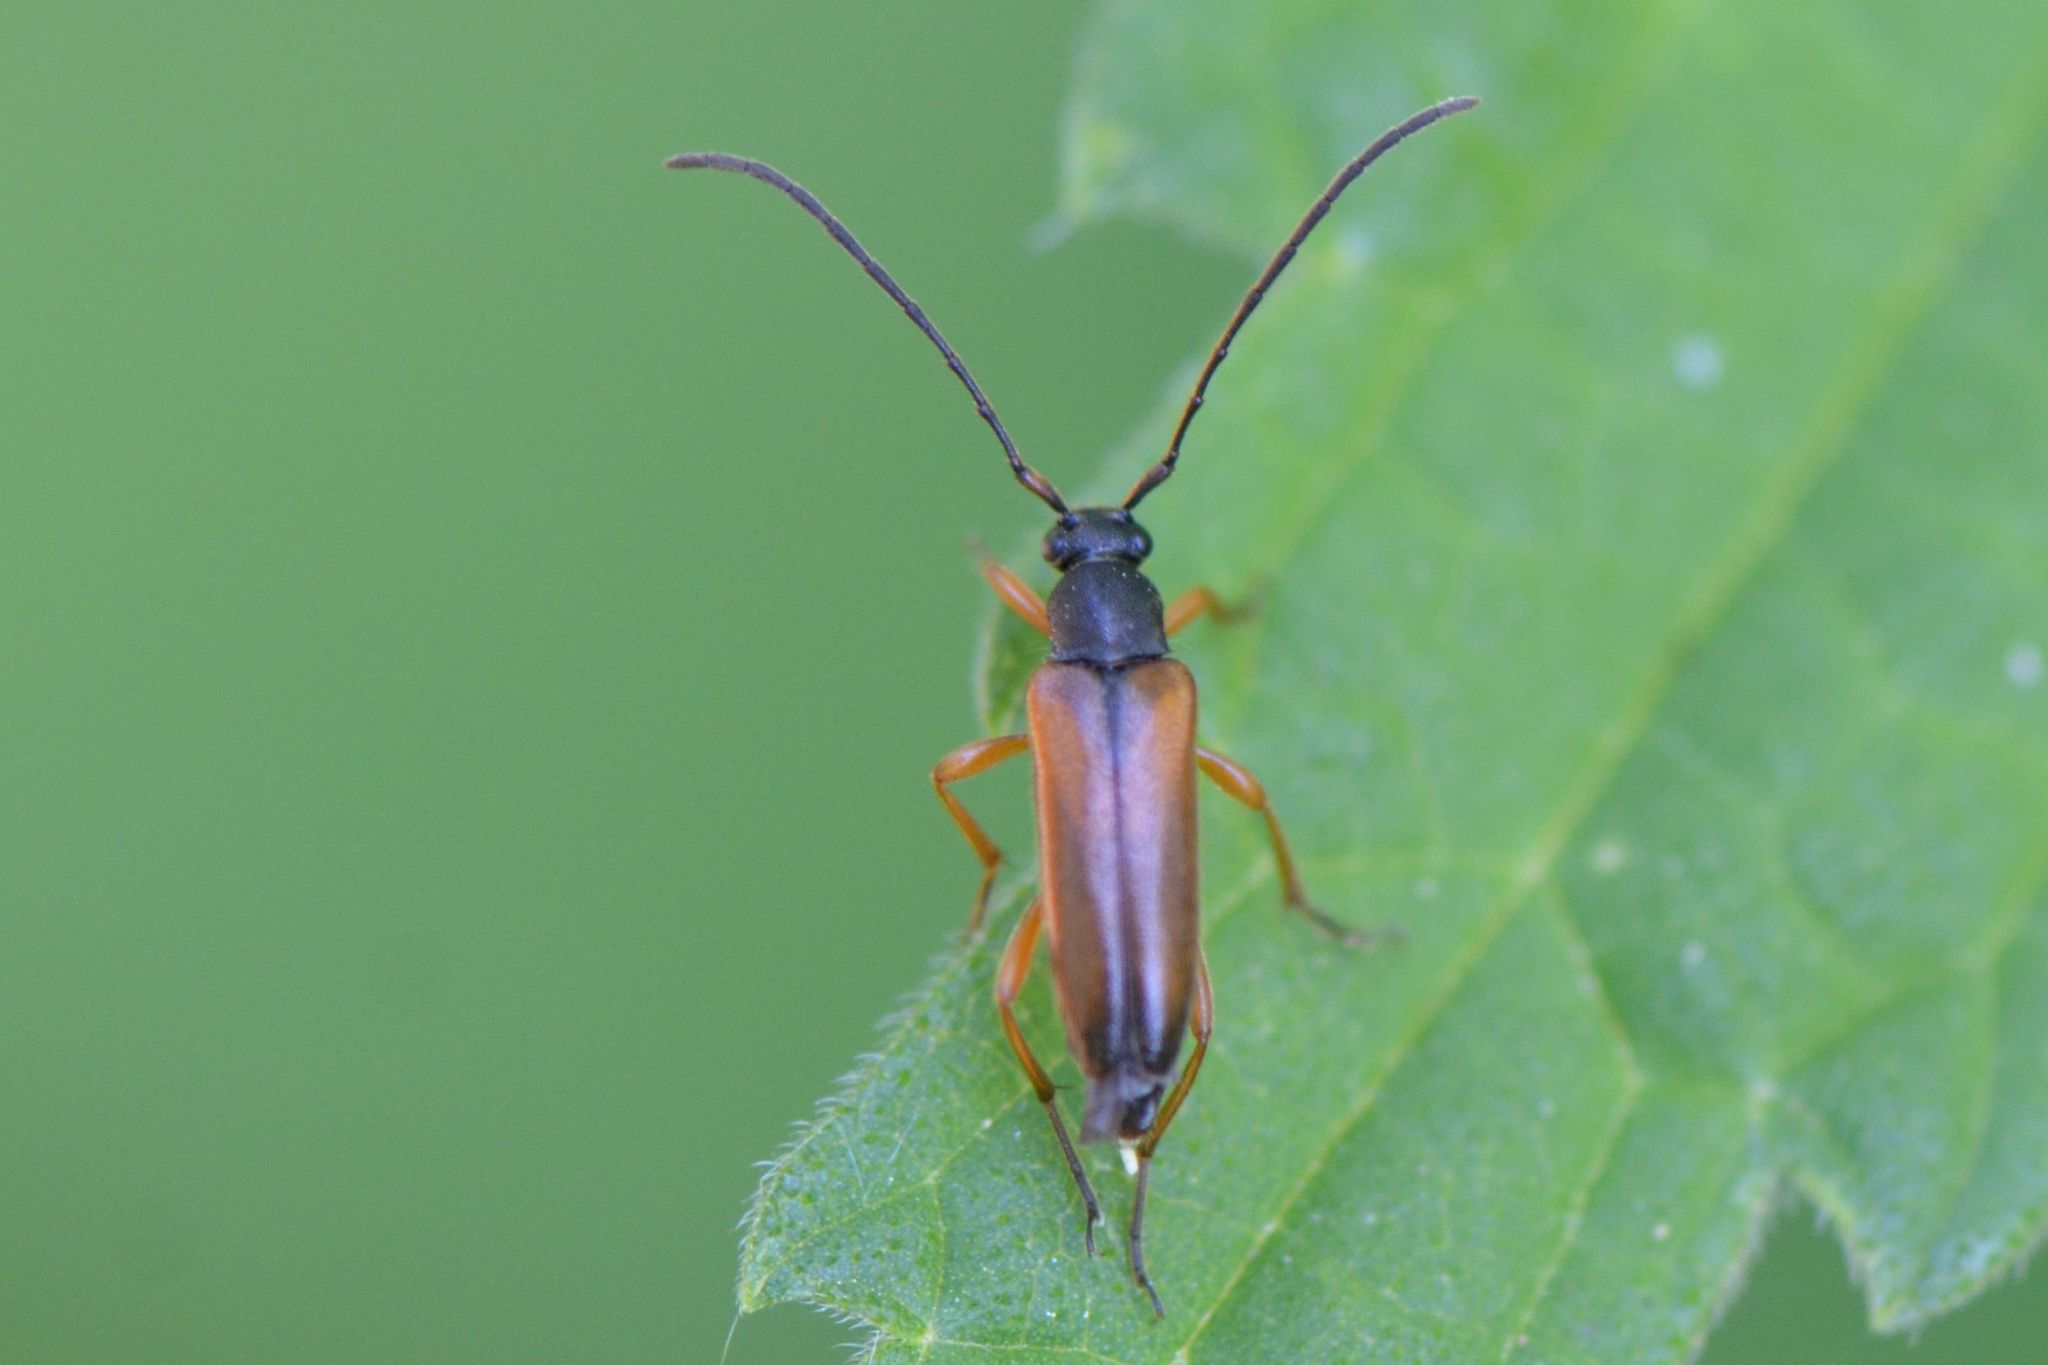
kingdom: Animalia
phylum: Arthropoda
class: Insecta
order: Coleoptera
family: Cerambycidae
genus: Alosterna
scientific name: Alosterna tabacicolor
